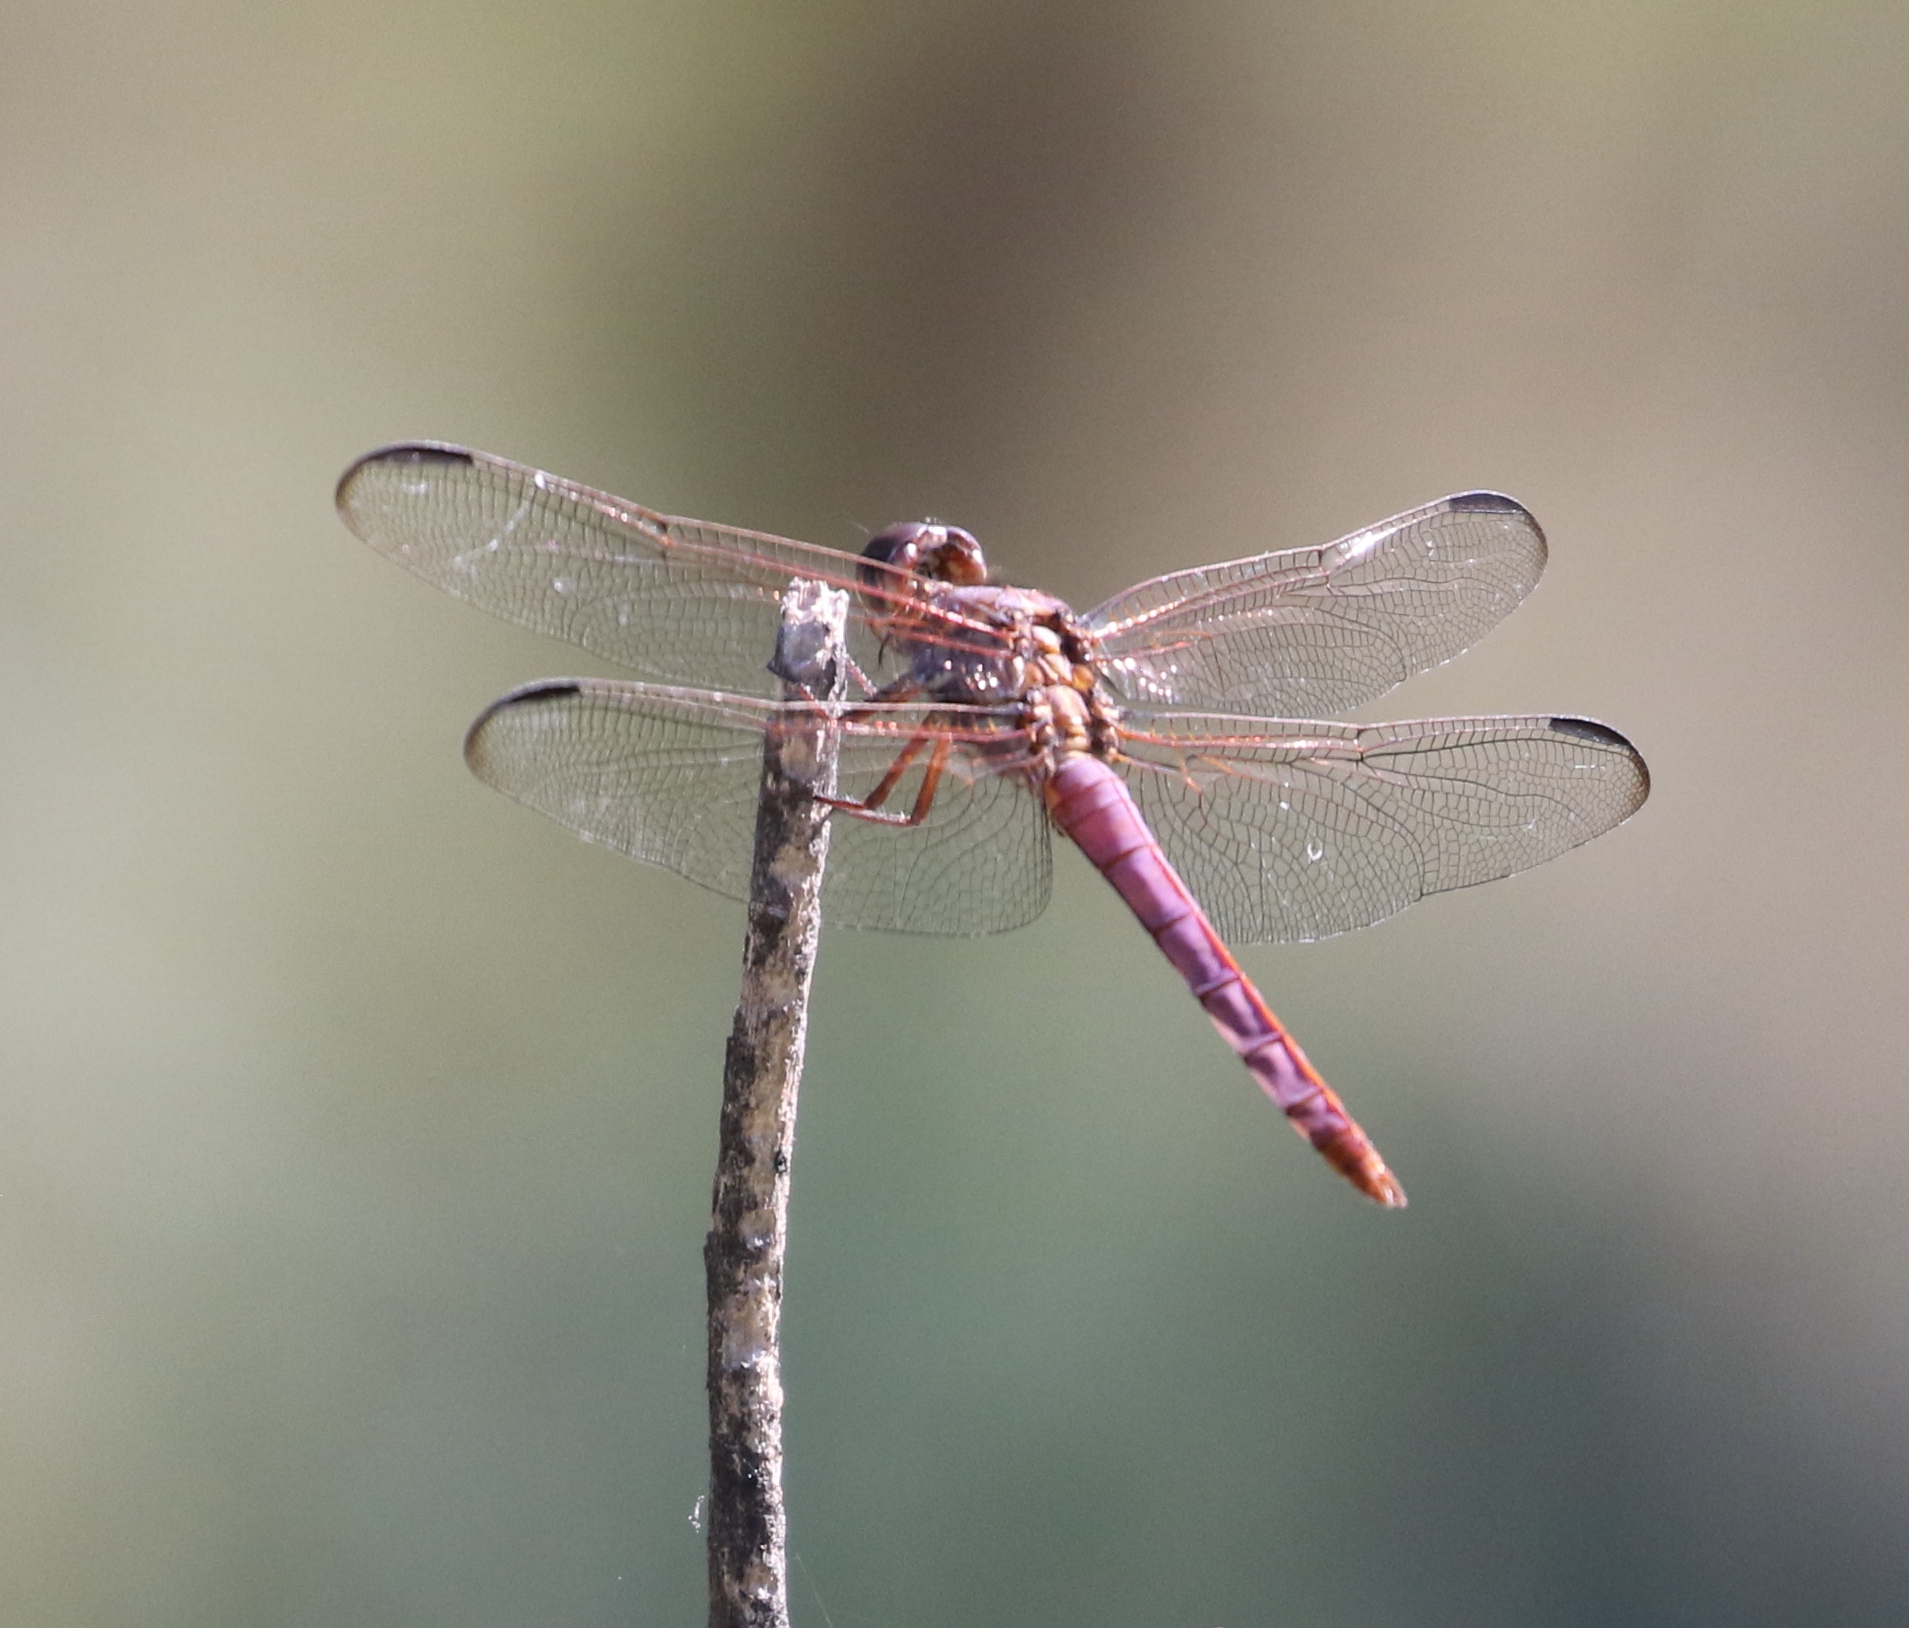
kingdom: Animalia
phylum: Arthropoda
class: Insecta
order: Odonata
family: Libellulidae
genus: Orthemis
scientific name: Orthemis ferruginea
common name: Roseate skimmer
